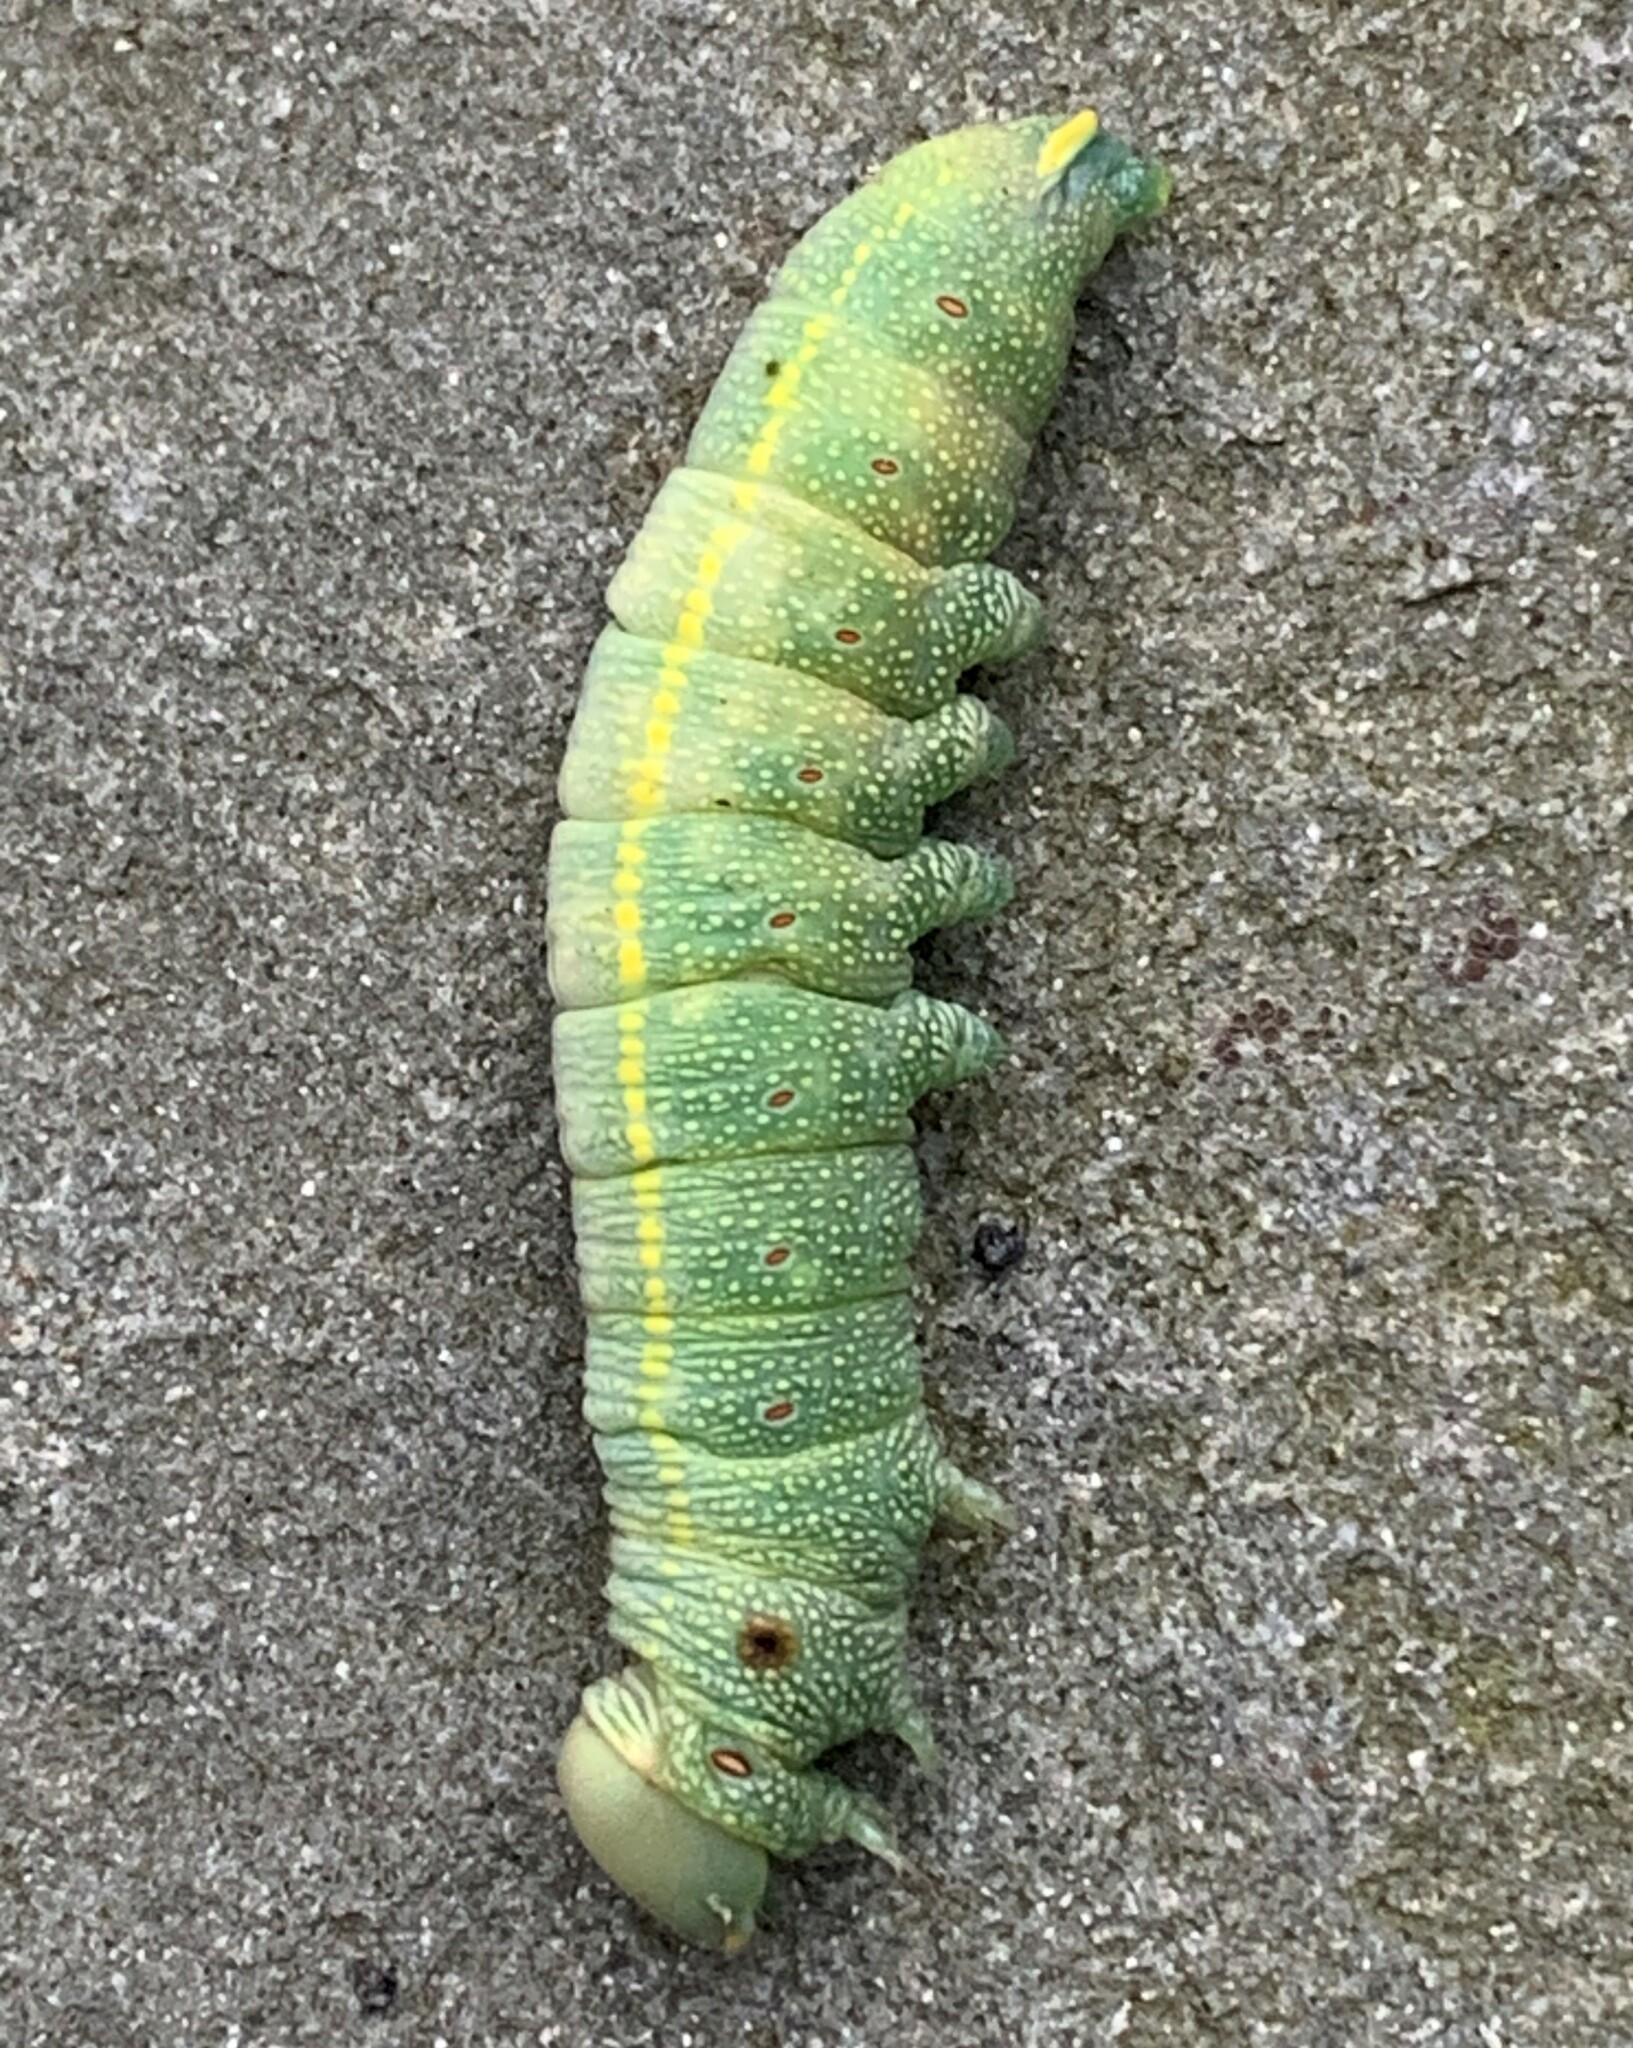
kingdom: Animalia
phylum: Arthropoda
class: Insecta
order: Lepidoptera
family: Notodontidae
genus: Nadata
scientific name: Nadata gibbosa
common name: White-dotted prominent
